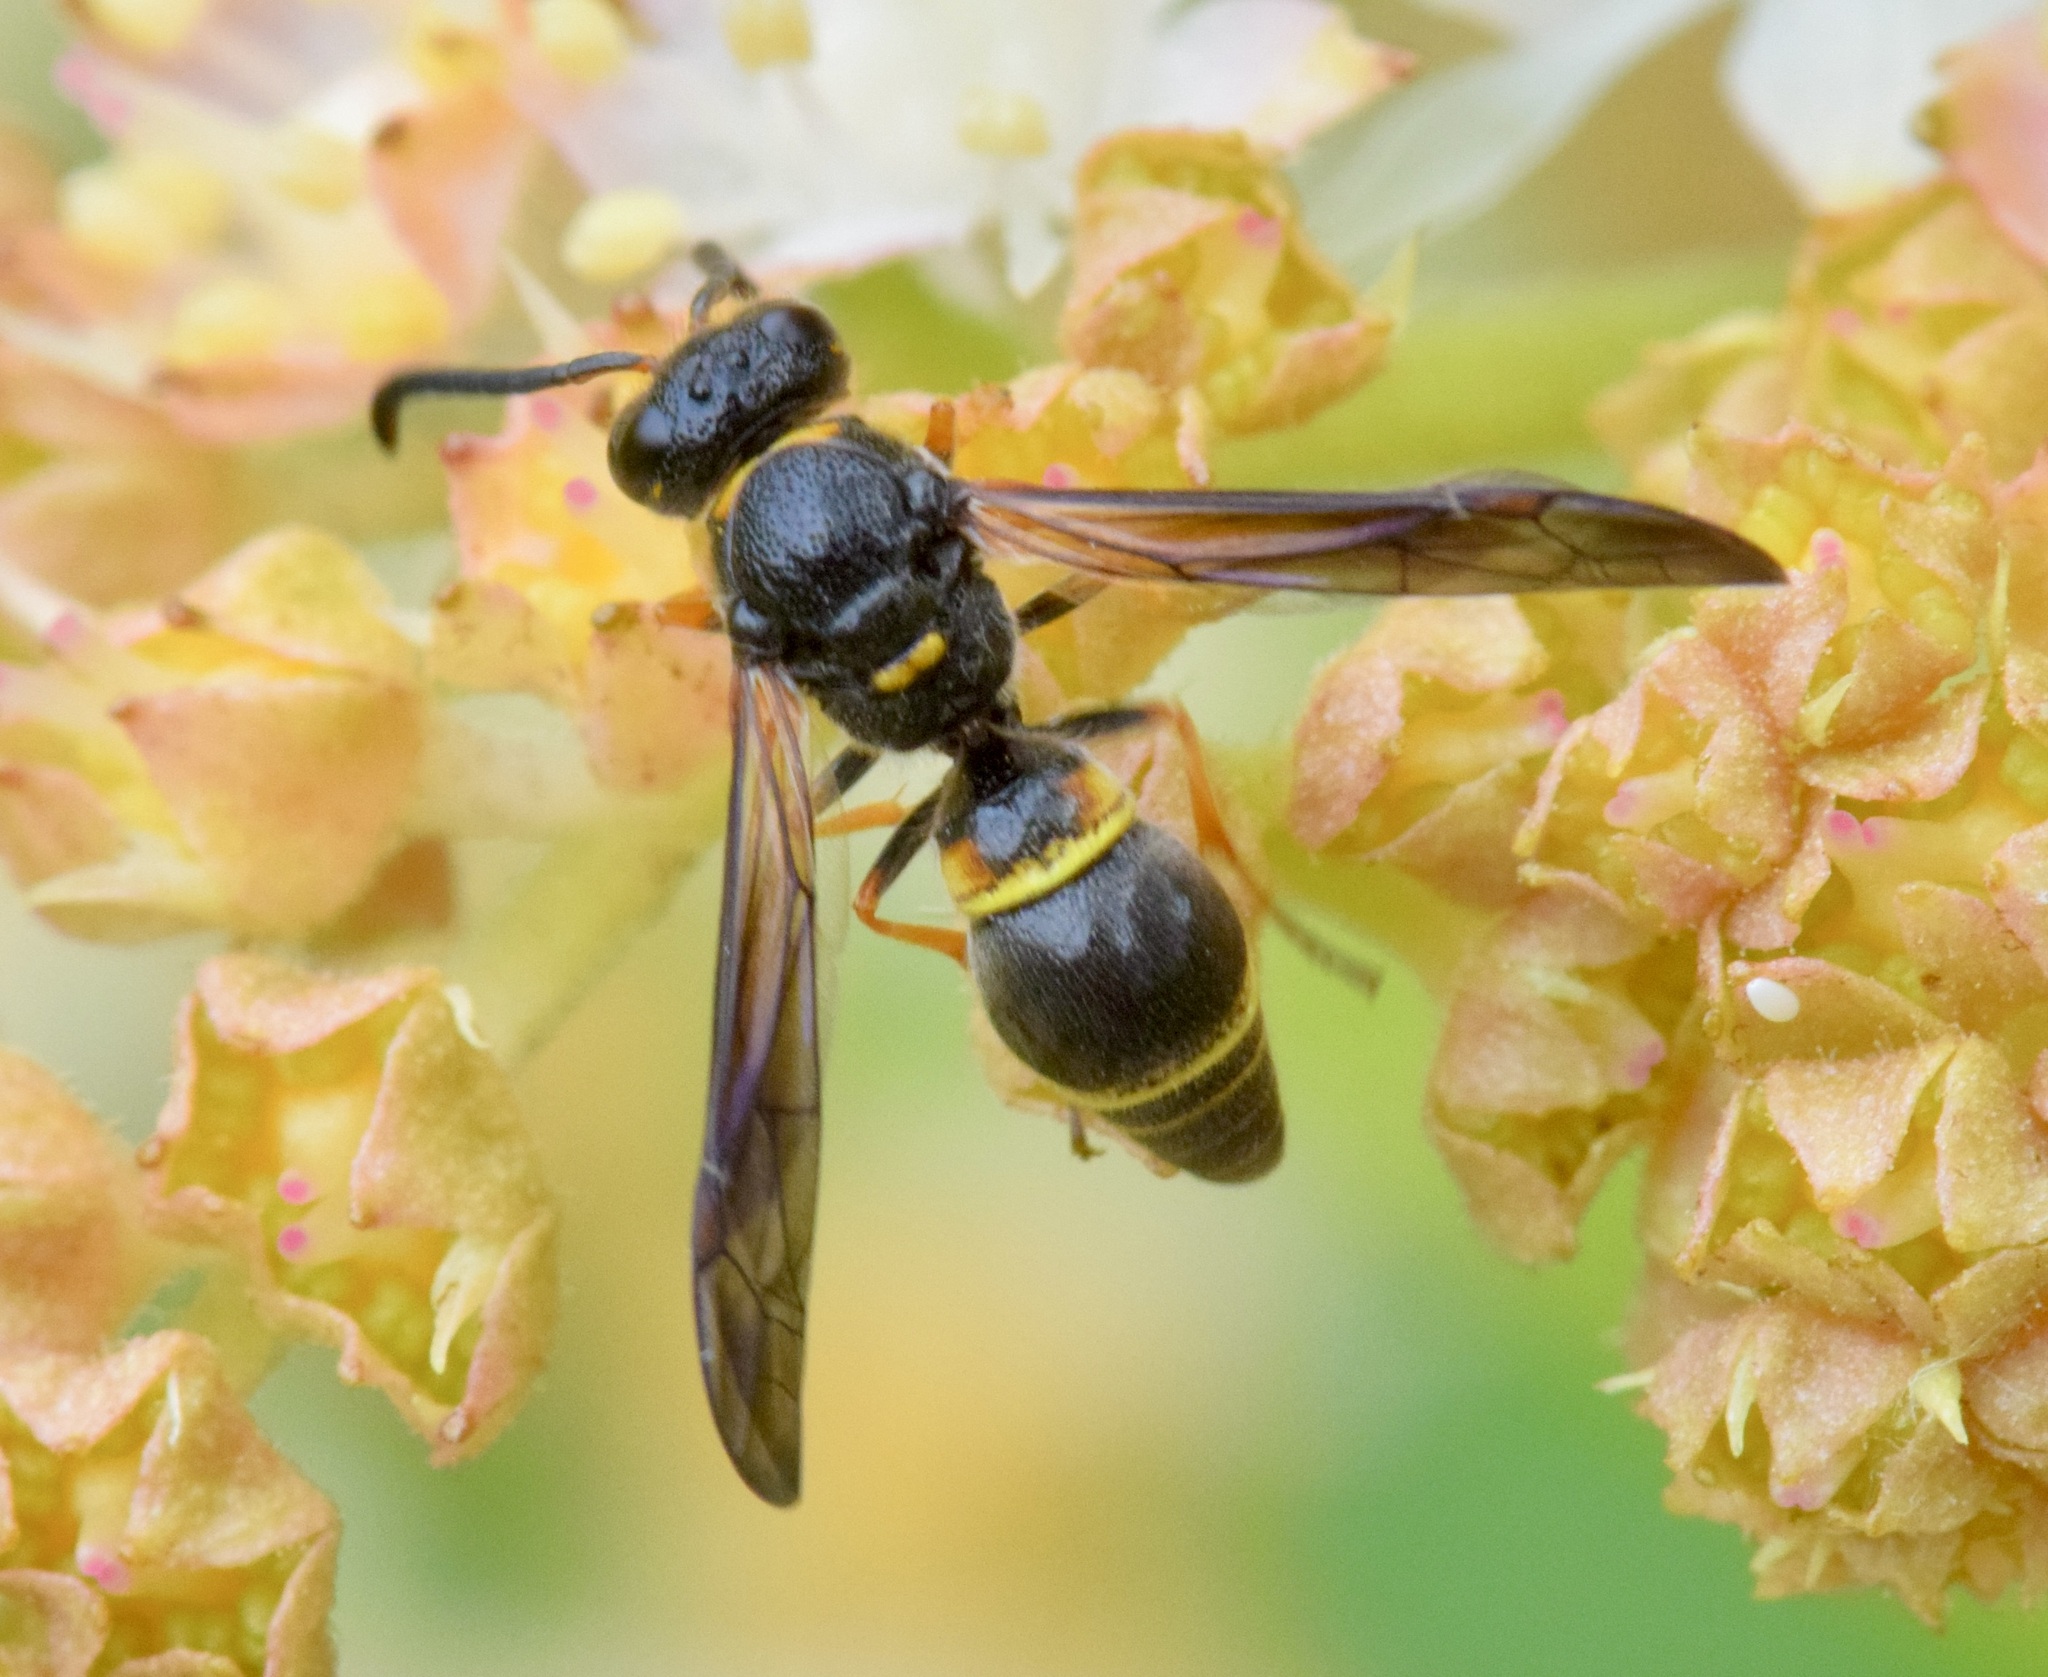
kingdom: Animalia
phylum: Arthropoda
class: Insecta
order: Hymenoptera
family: Vespidae
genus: Ancistrocerus
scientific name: Ancistrocerus unifasciatus
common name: One-banded mason wasp
